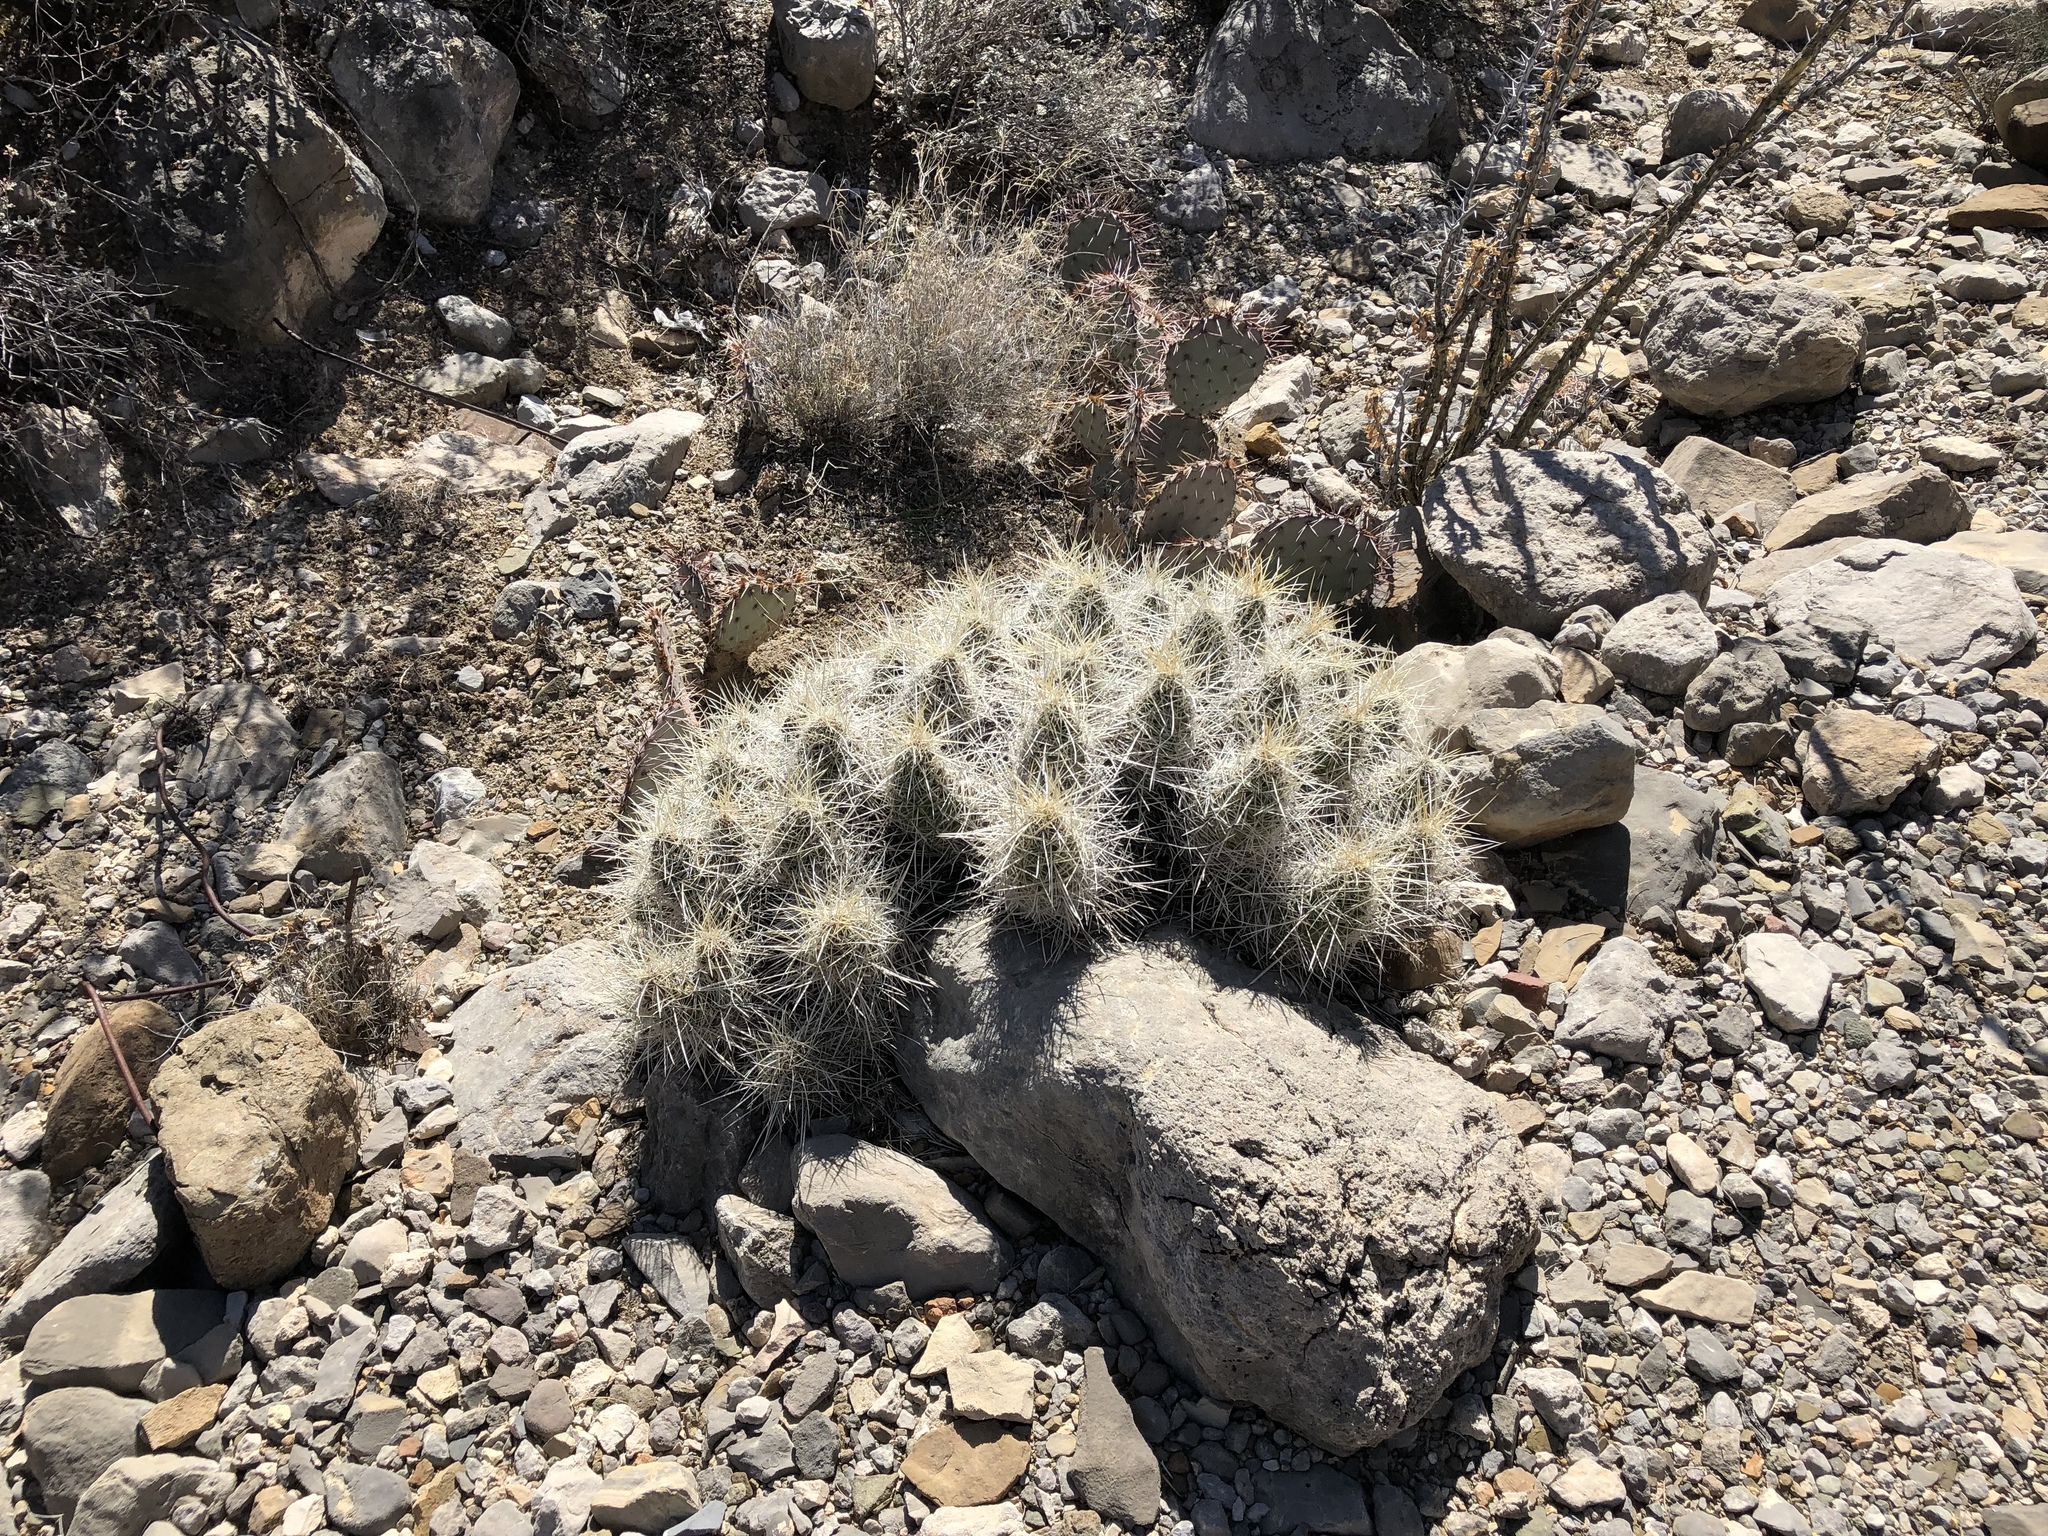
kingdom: Plantae
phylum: Tracheophyta
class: Magnoliopsida
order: Caryophyllales
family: Cactaceae
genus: Echinocereus
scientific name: Echinocereus stramineus
